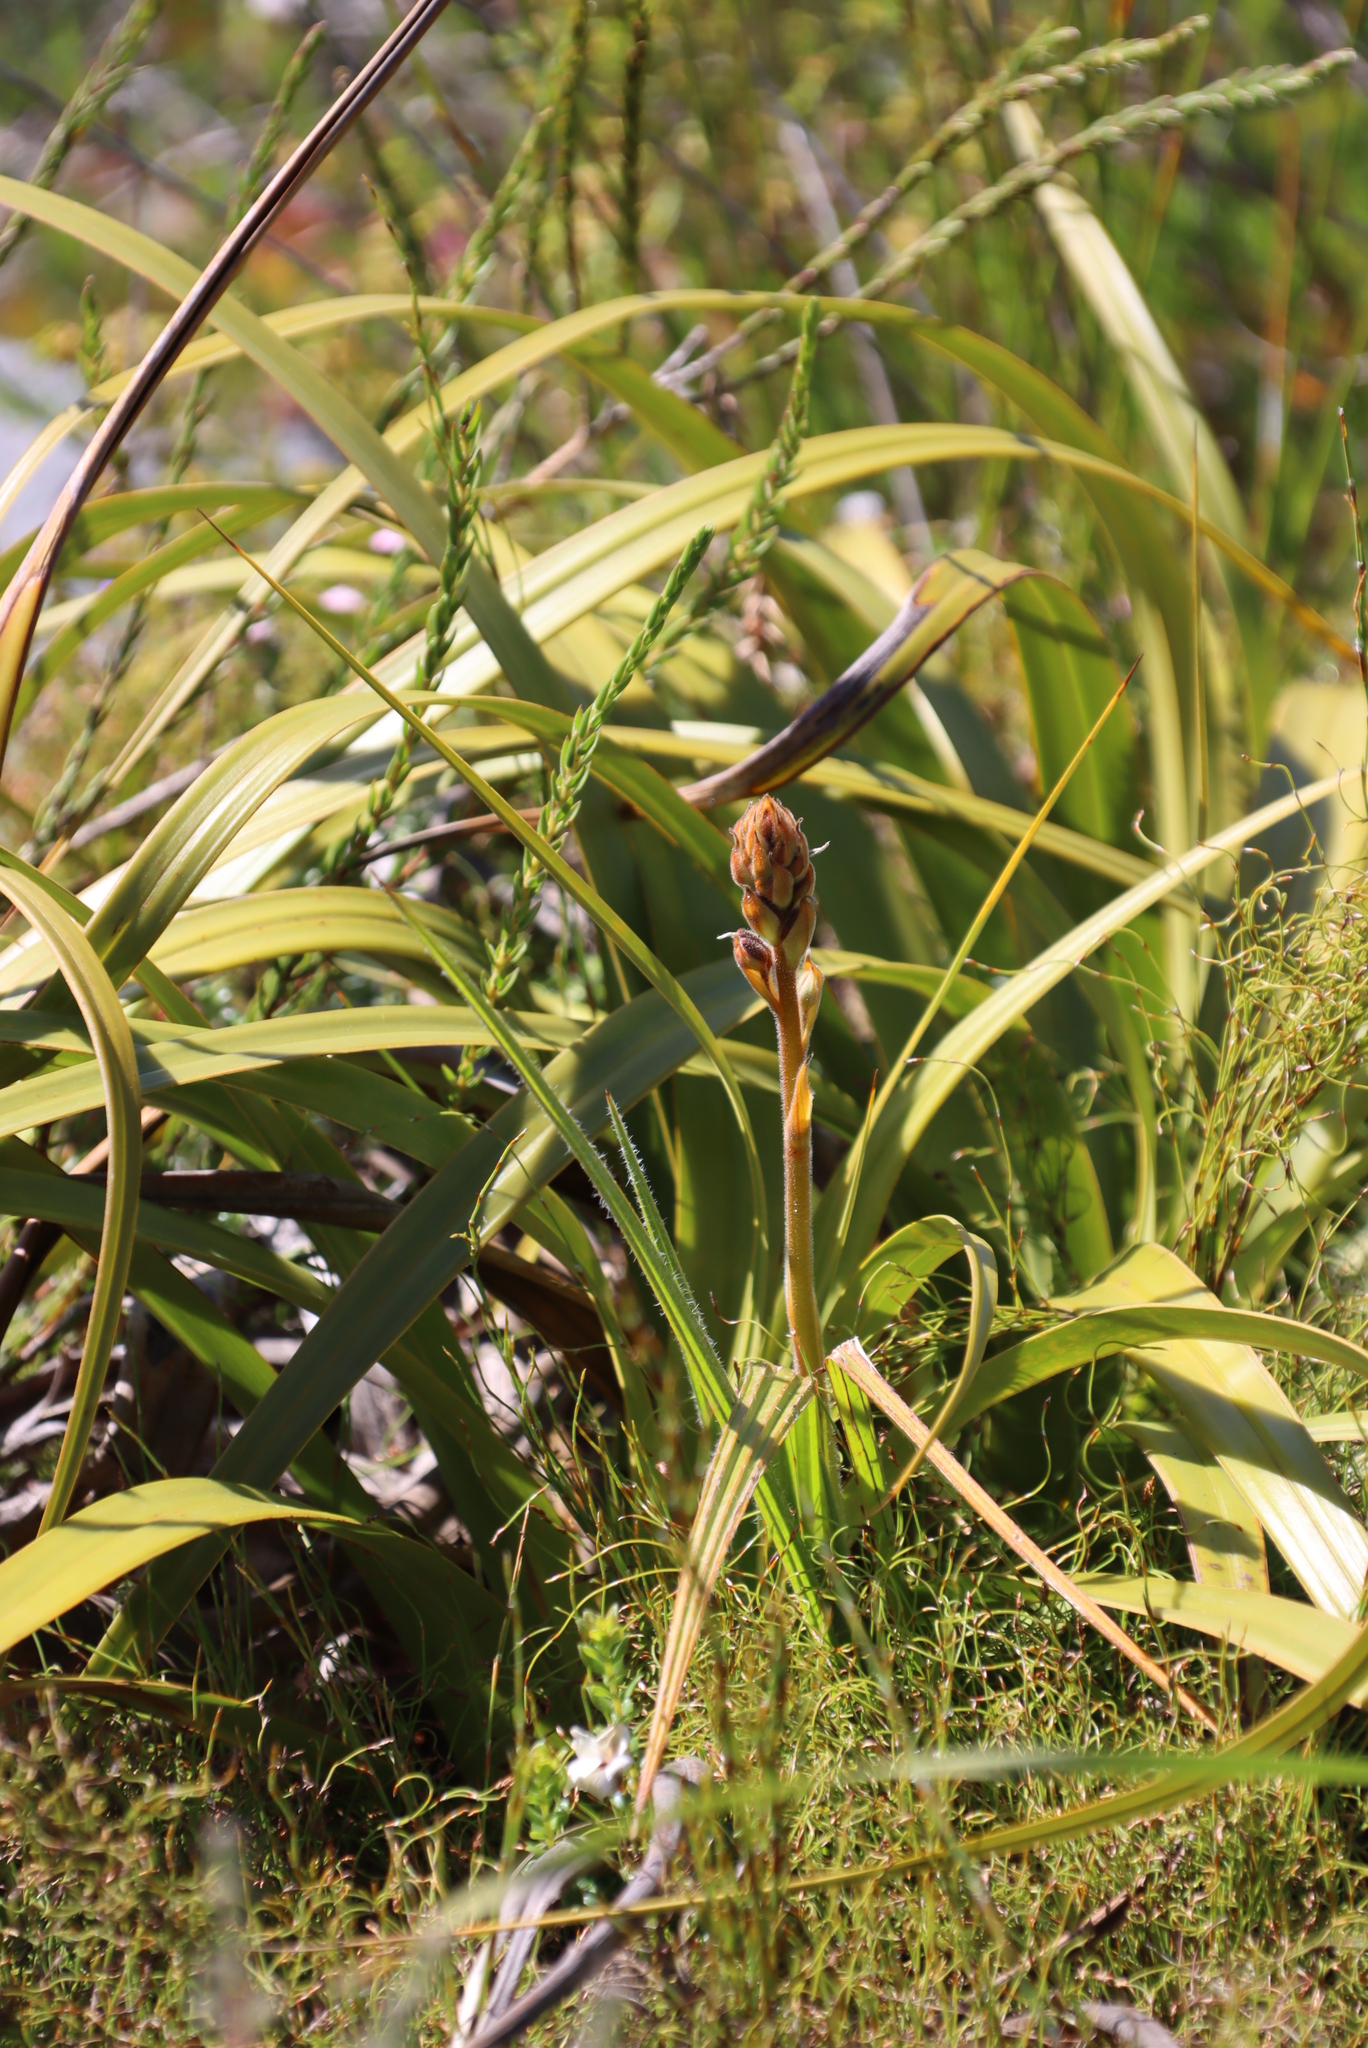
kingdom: Plantae
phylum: Tracheophyta
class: Liliopsida
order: Commelinales
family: Haemodoraceae
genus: Wachendorfia
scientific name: Wachendorfia thyrsiflora
